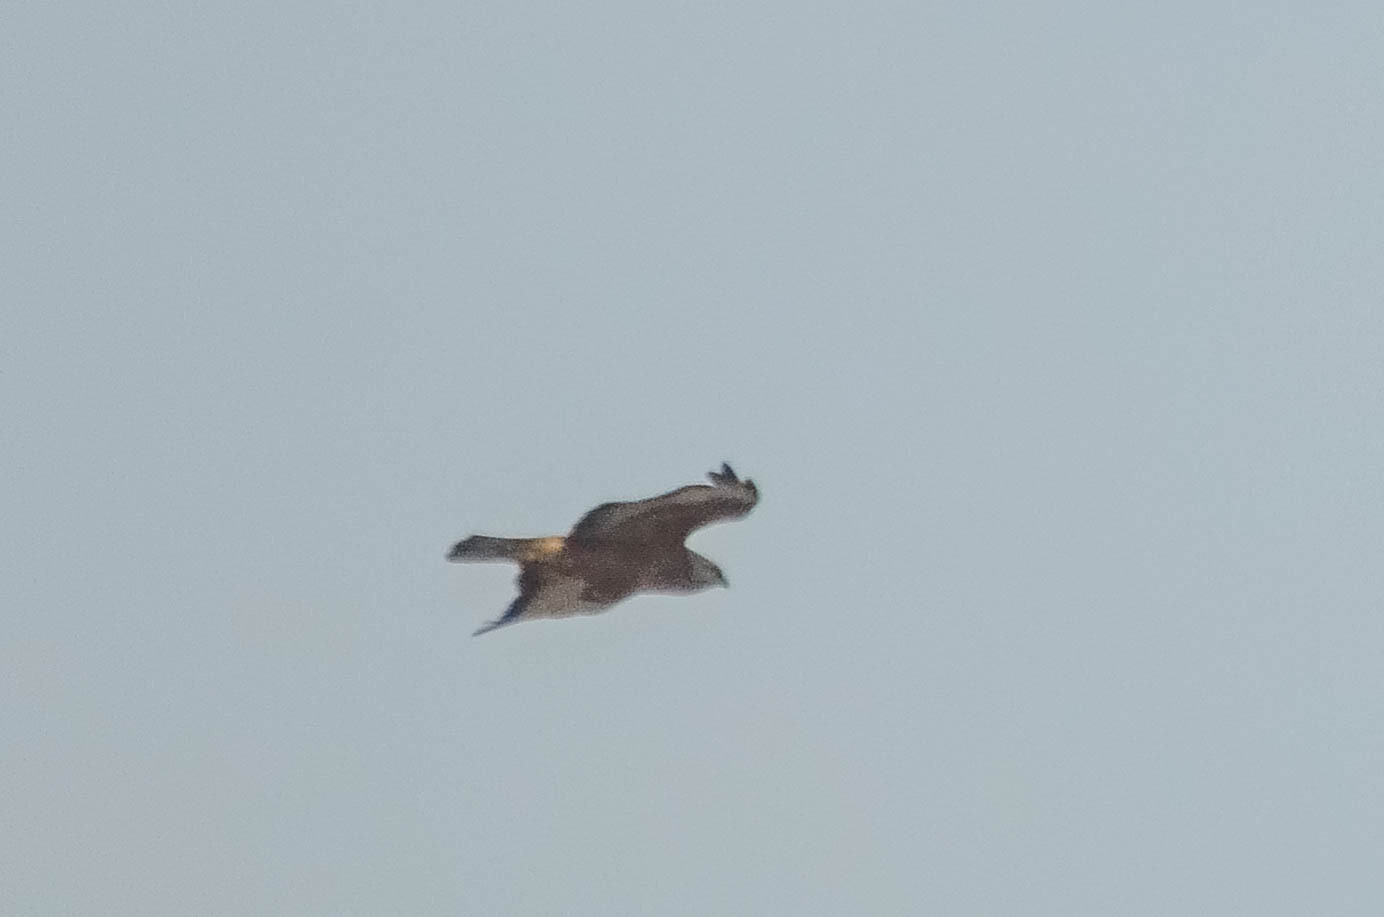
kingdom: Animalia
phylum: Chordata
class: Aves
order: Accipitriformes
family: Accipitridae
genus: Buteo
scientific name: Buteo buteo
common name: Common buzzard
